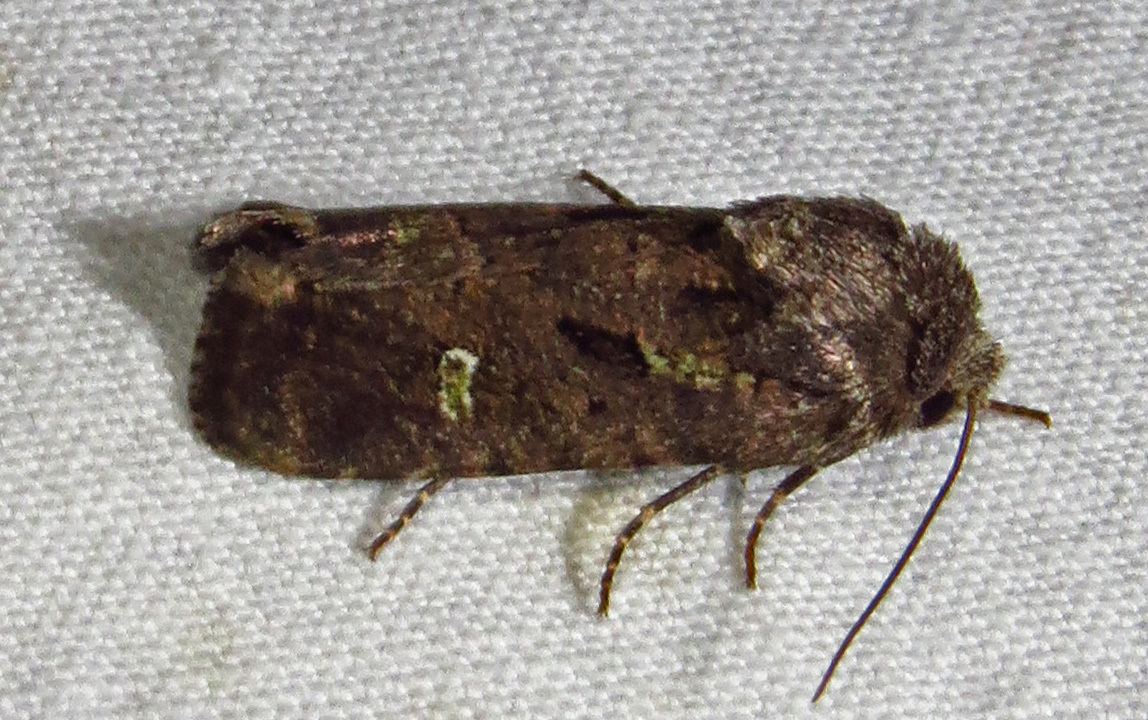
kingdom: Animalia
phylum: Arthropoda
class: Insecta
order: Lepidoptera
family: Noctuidae
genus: Lacinipolia
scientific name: Lacinipolia renigera
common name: Kidney-spotted minor
